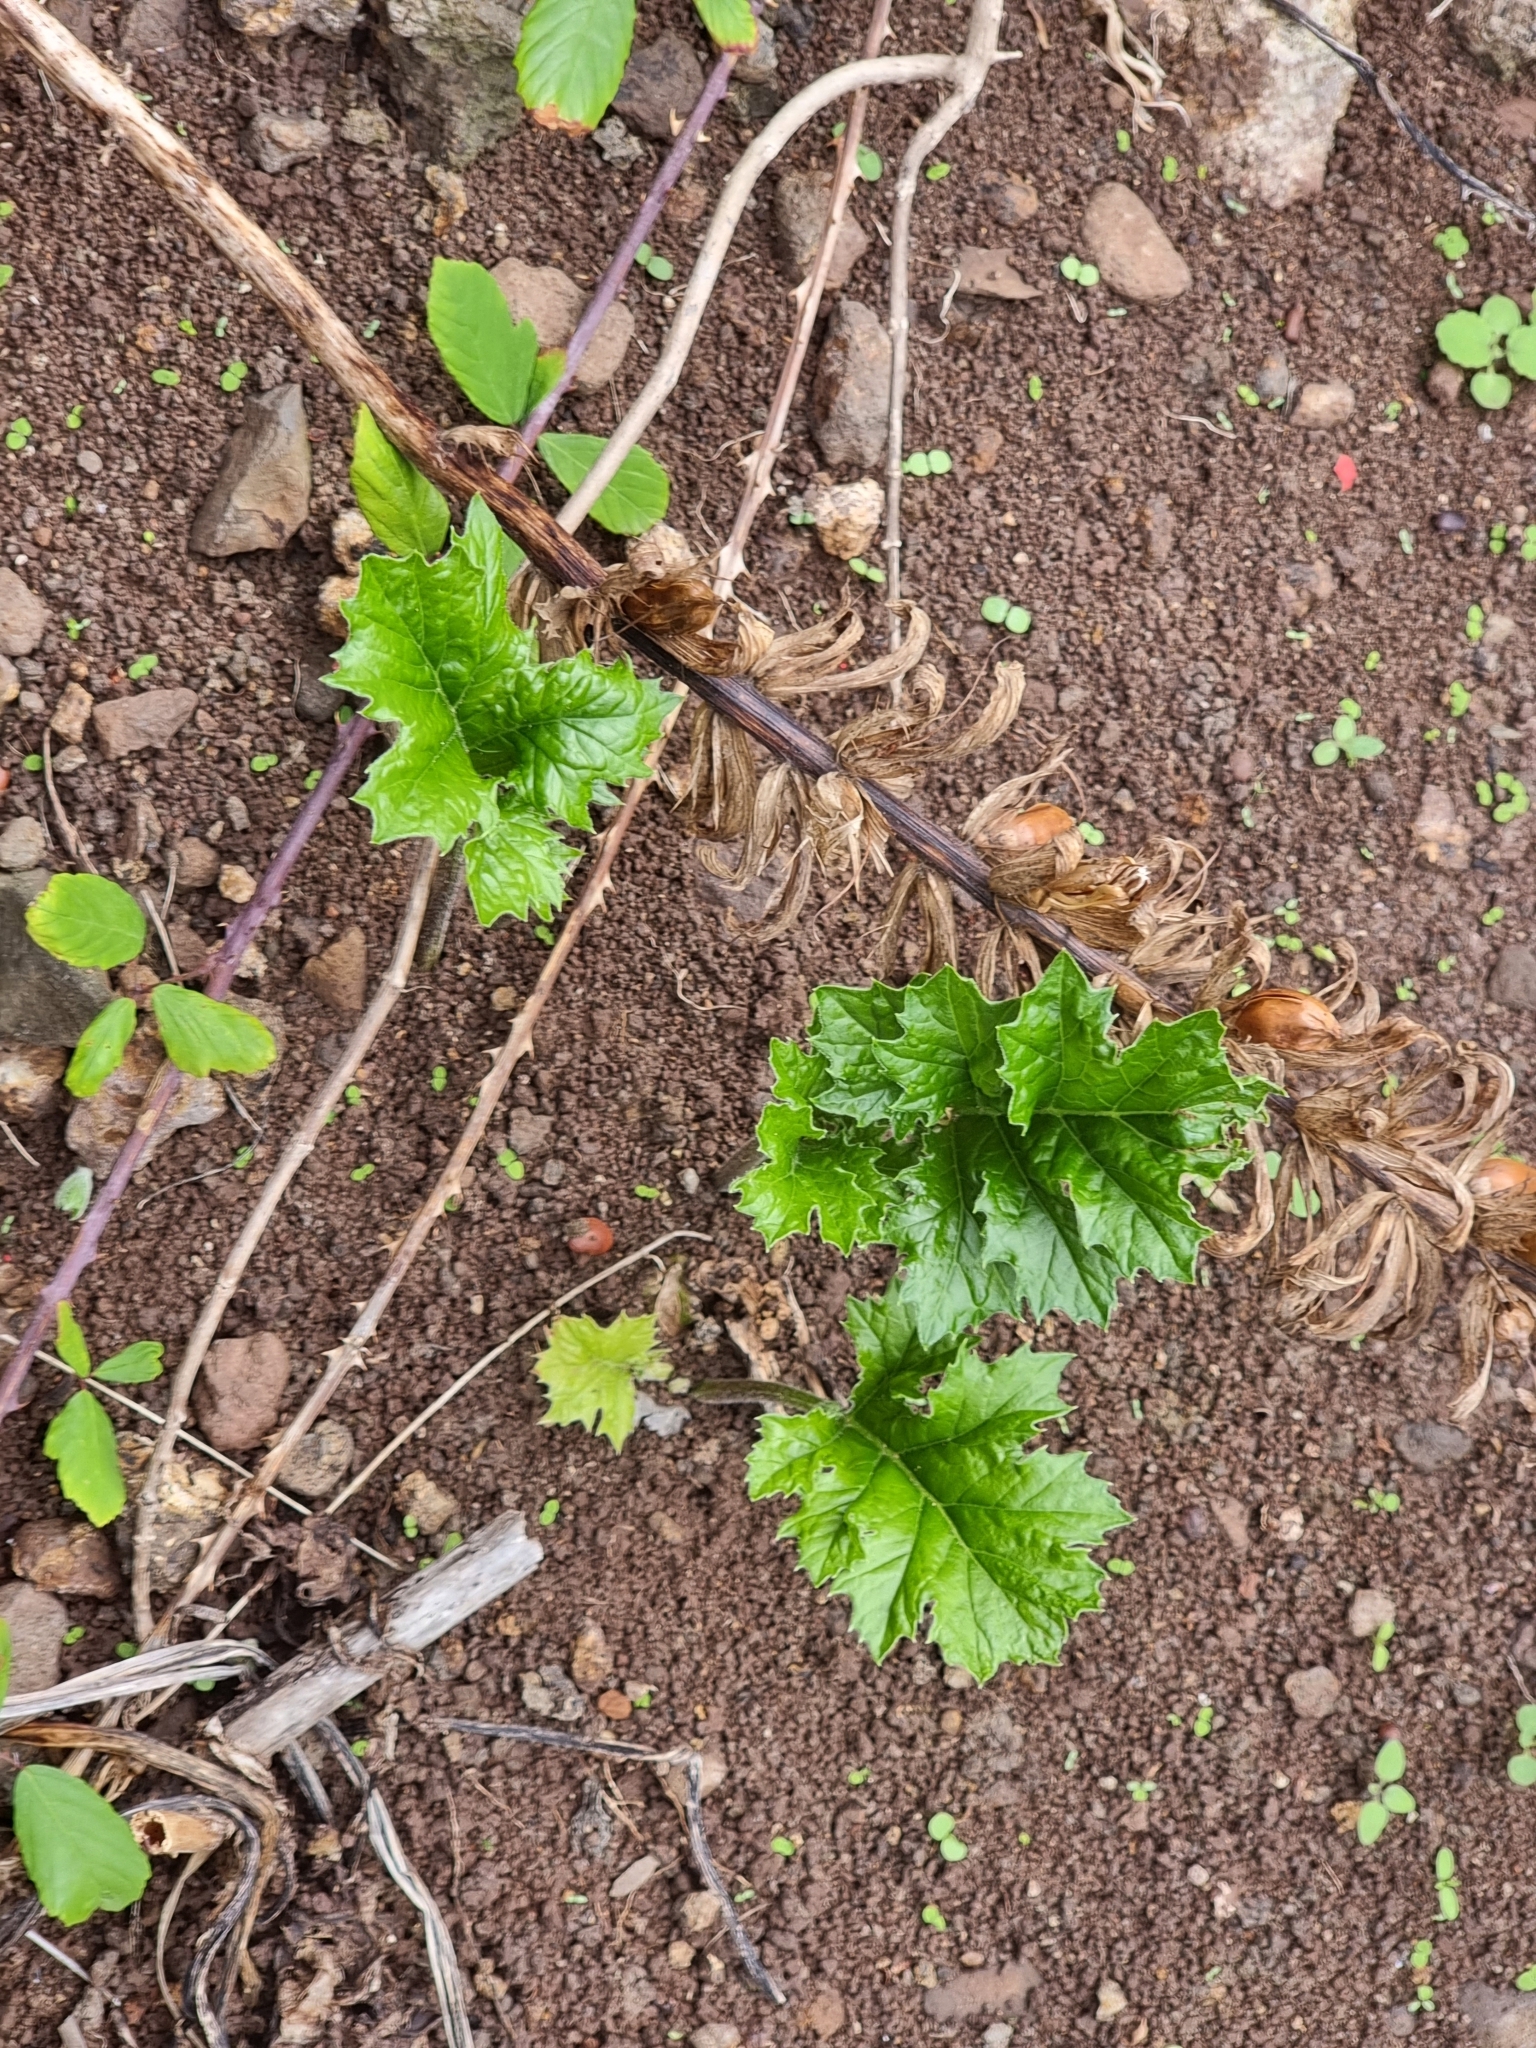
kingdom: Plantae
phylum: Tracheophyta
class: Magnoliopsida
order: Lamiales
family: Acanthaceae
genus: Acanthus
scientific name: Acanthus mollis
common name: Bear's-breech
